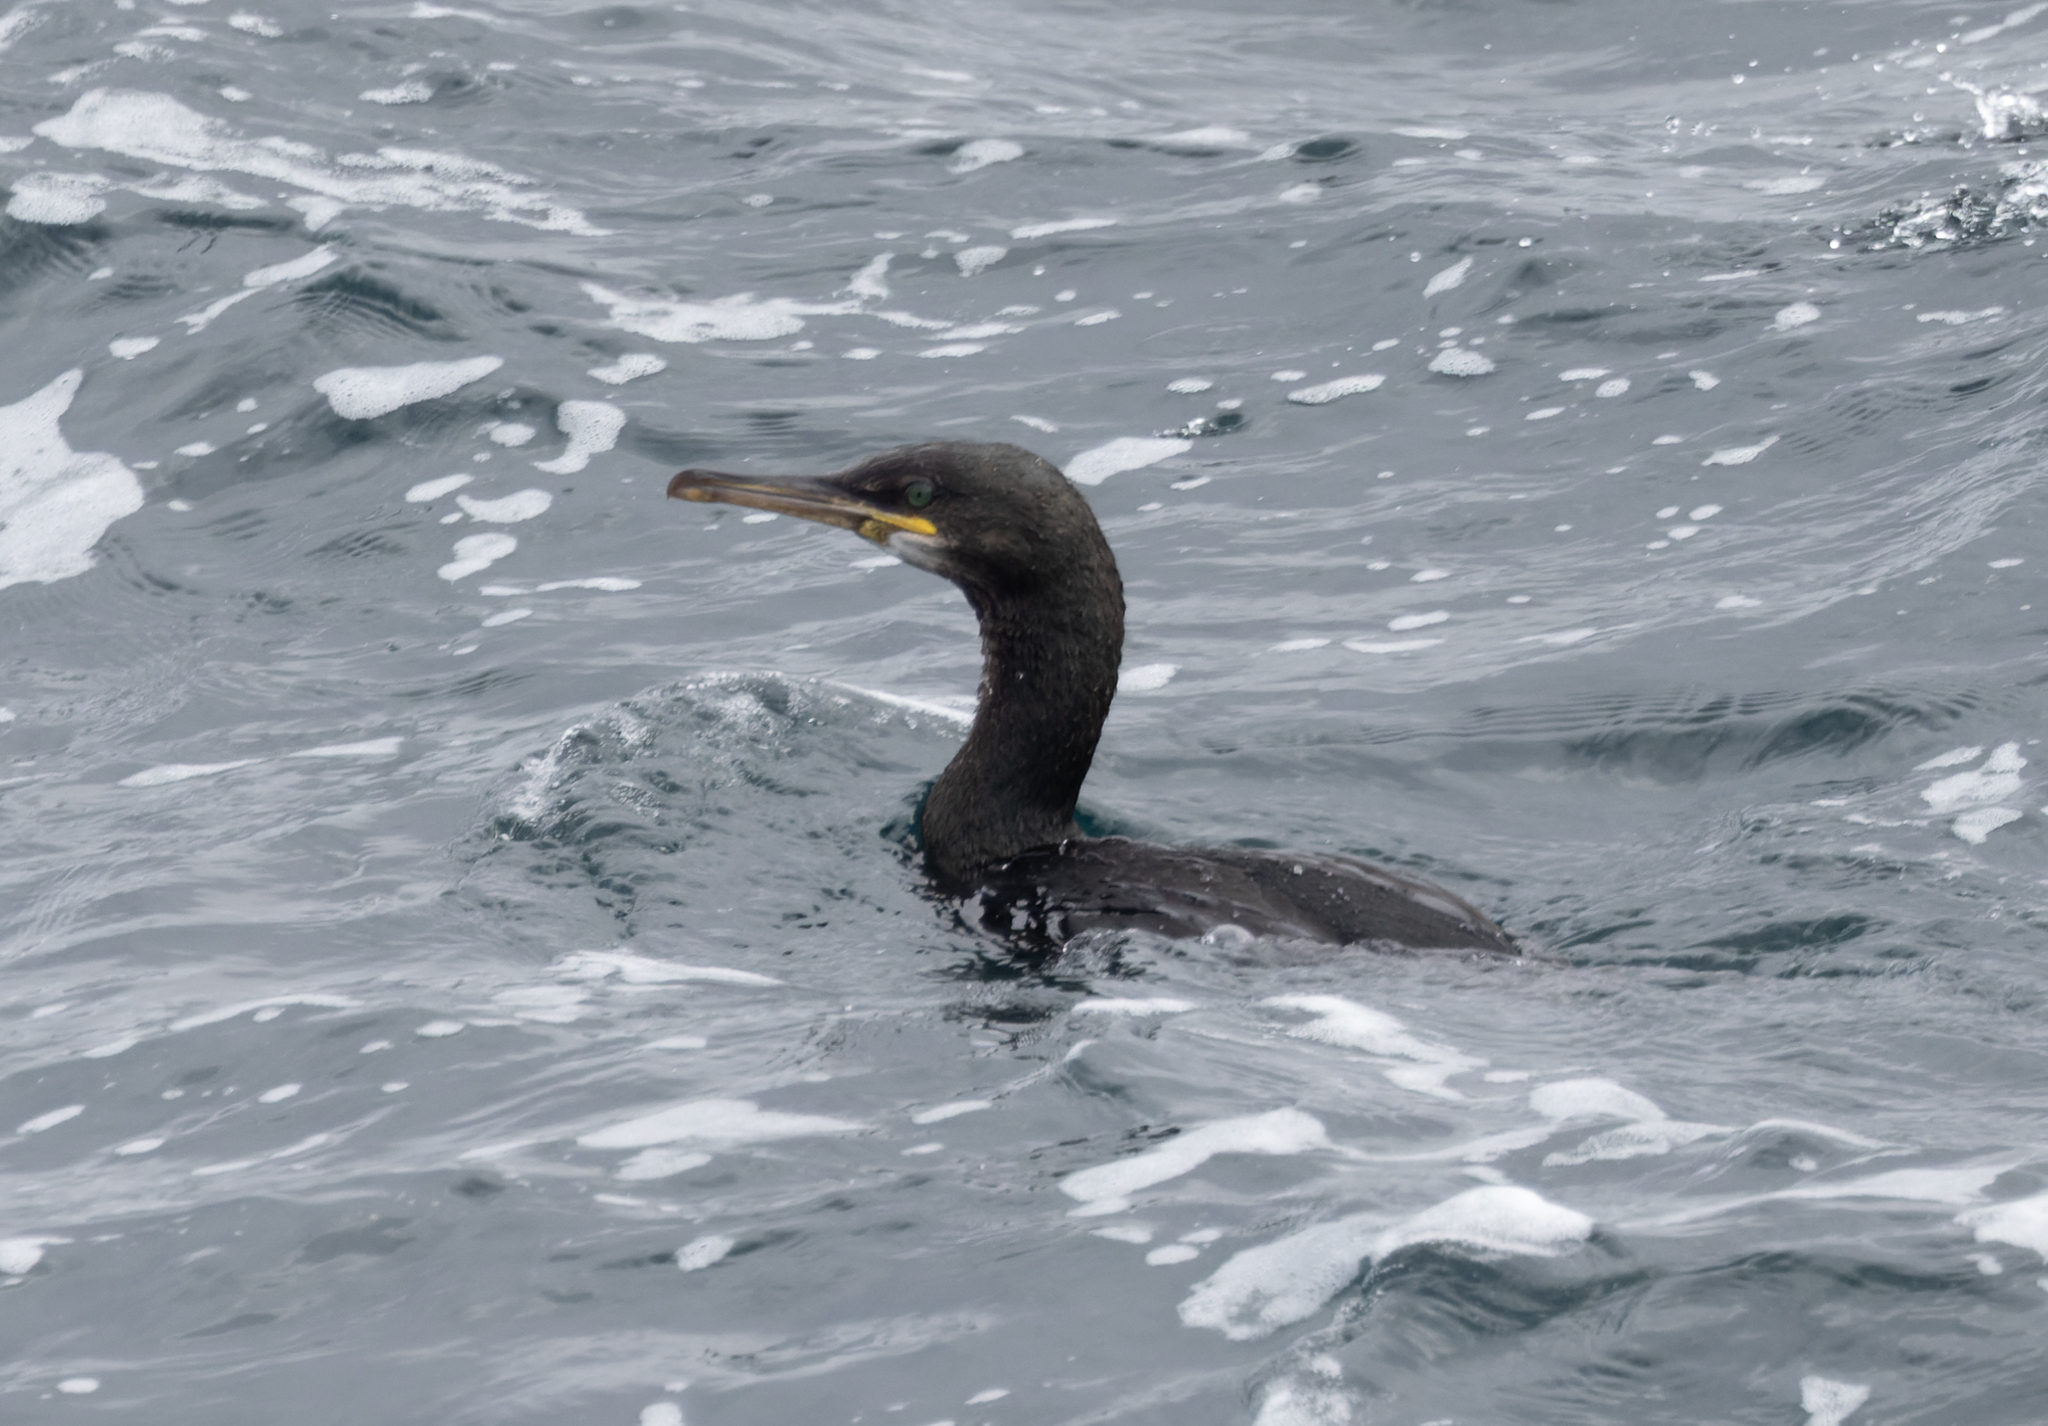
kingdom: Animalia
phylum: Chordata
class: Aves
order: Suliformes
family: Phalacrocoracidae
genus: Phalacrocorax
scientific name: Phalacrocorax aristotelis
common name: European shag
